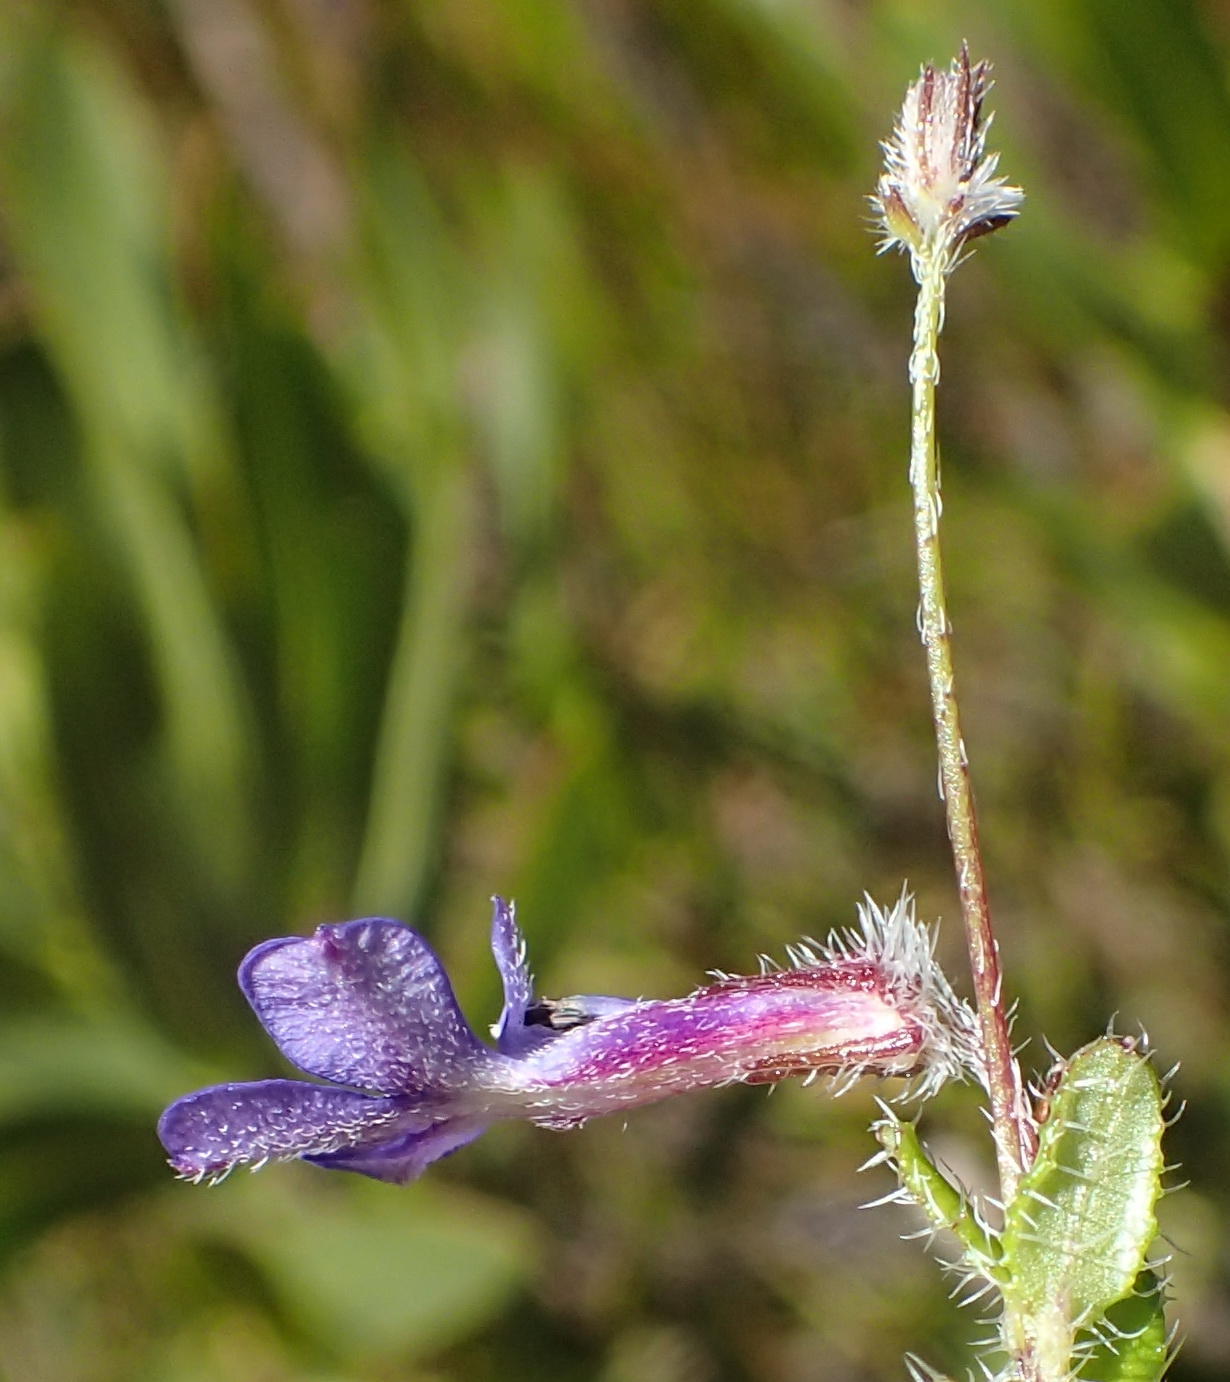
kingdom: Plantae
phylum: Tracheophyta
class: Magnoliopsida
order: Asterales
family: Campanulaceae
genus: Lobelia
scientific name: Lobelia neglecta
